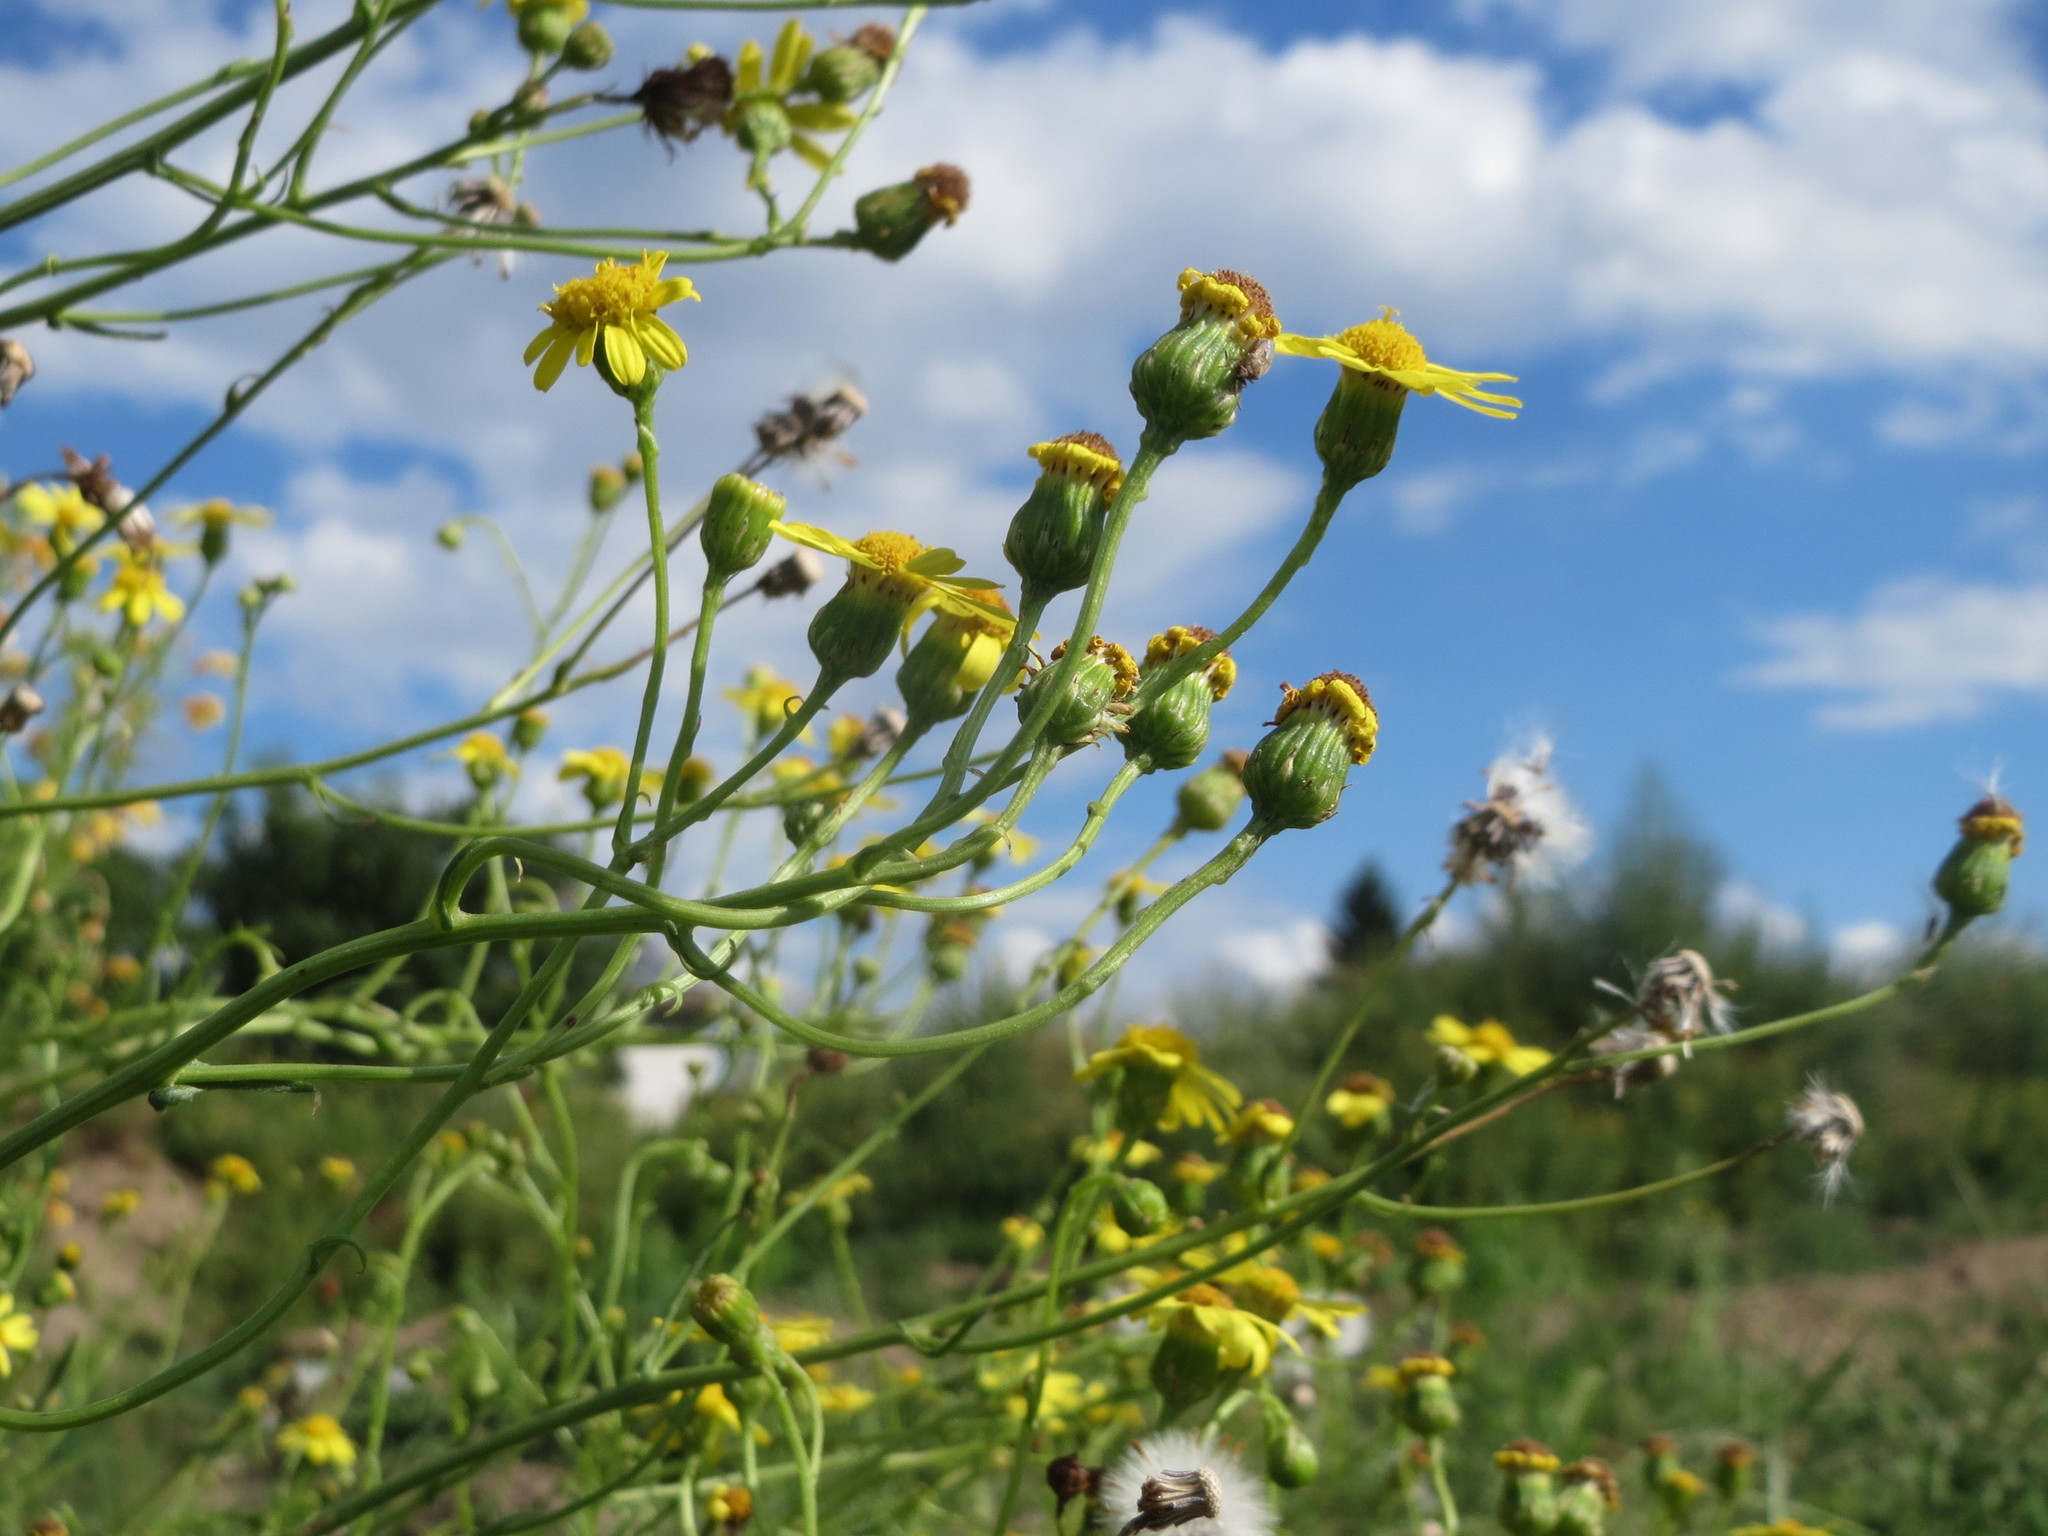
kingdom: Plantae
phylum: Tracheophyta
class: Magnoliopsida
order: Asterales
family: Asteraceae
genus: Senecio
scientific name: Senecio inaequidens
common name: Narrow-leaved ragwort
